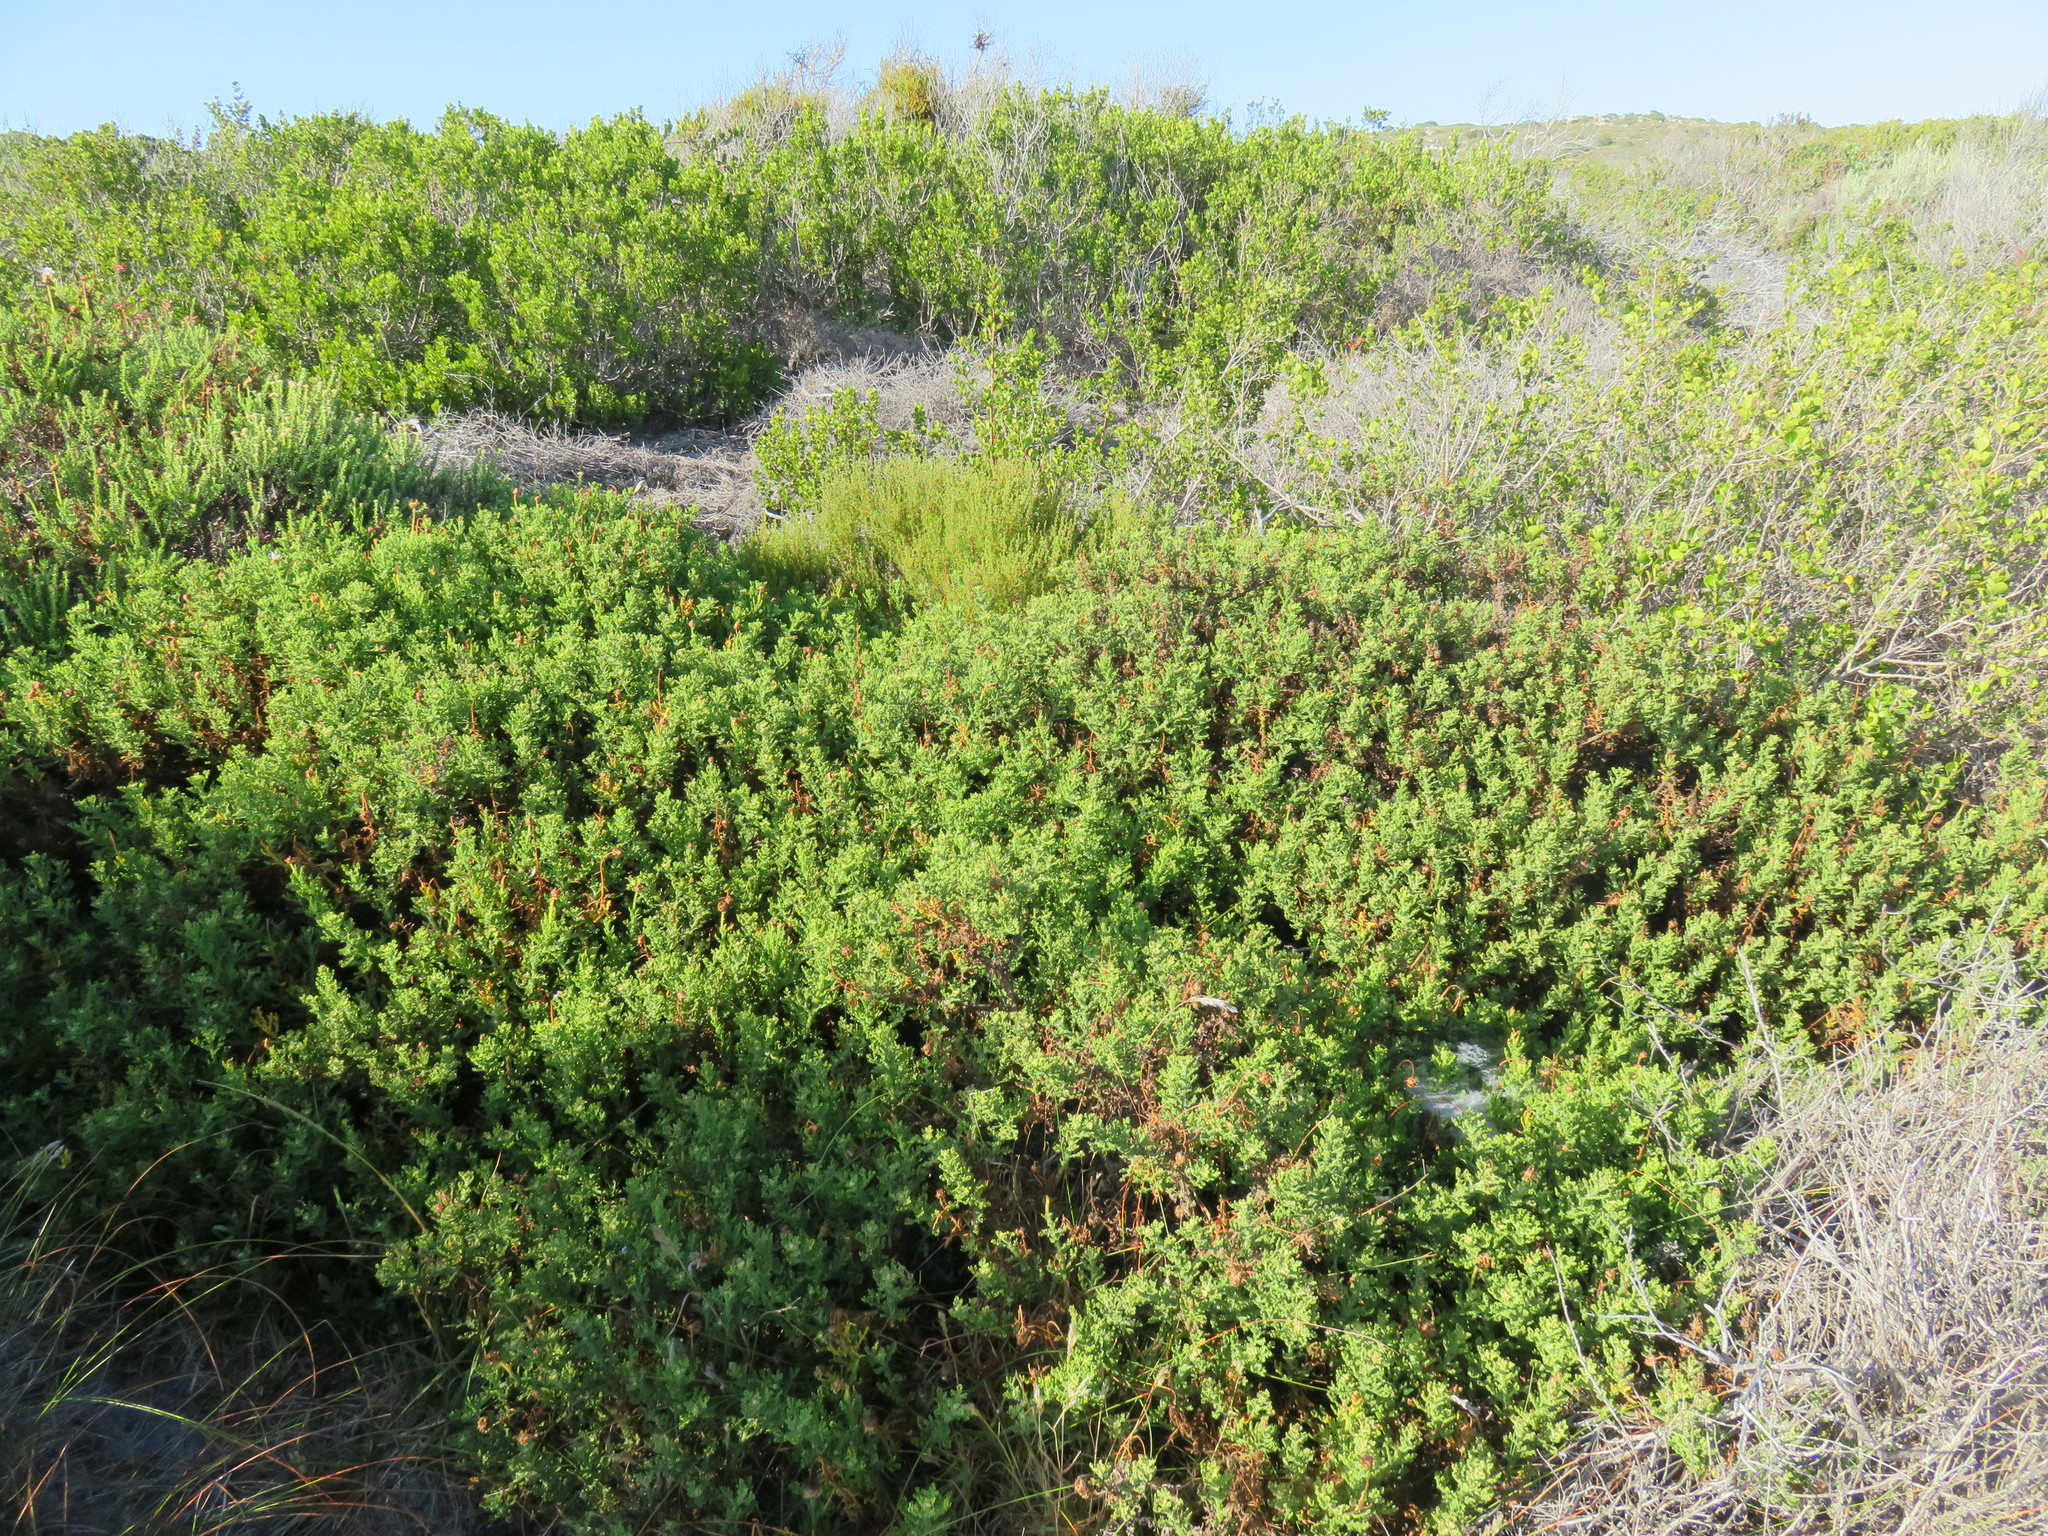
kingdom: Plantae
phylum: Tracheophyta
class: Magnoliopsida
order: Asterales
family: Asteraceae
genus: Arctotis
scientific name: Arctotis aspera
